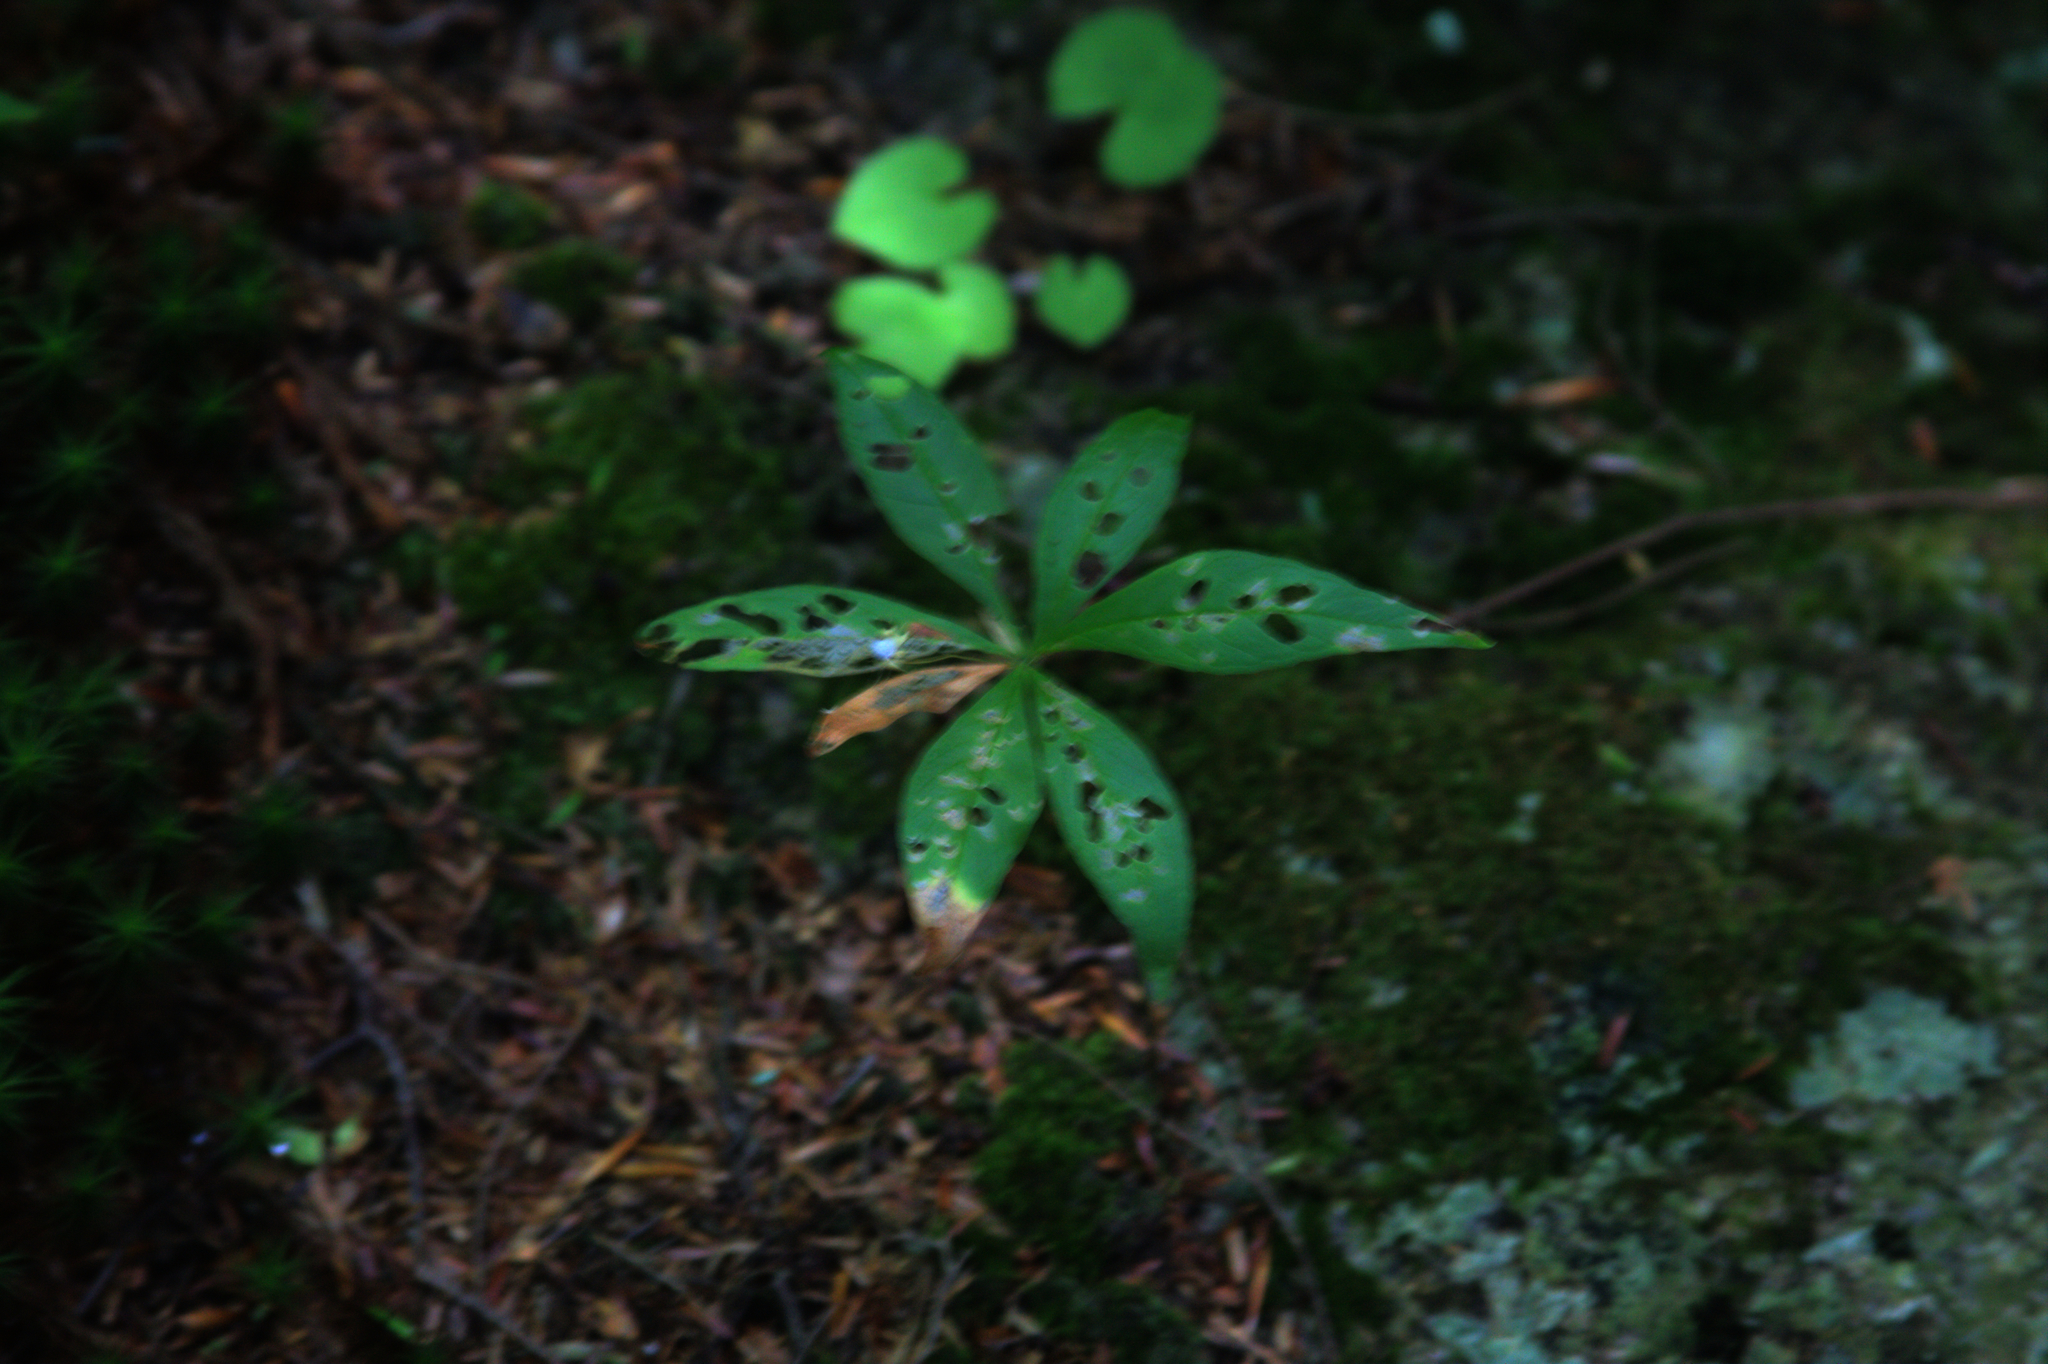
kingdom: Plantae
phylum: Tracheophyta
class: Magnoliopsida
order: Ericales
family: Primulaceae
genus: Lysimachia
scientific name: Lysimachia borealis
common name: American starflower
